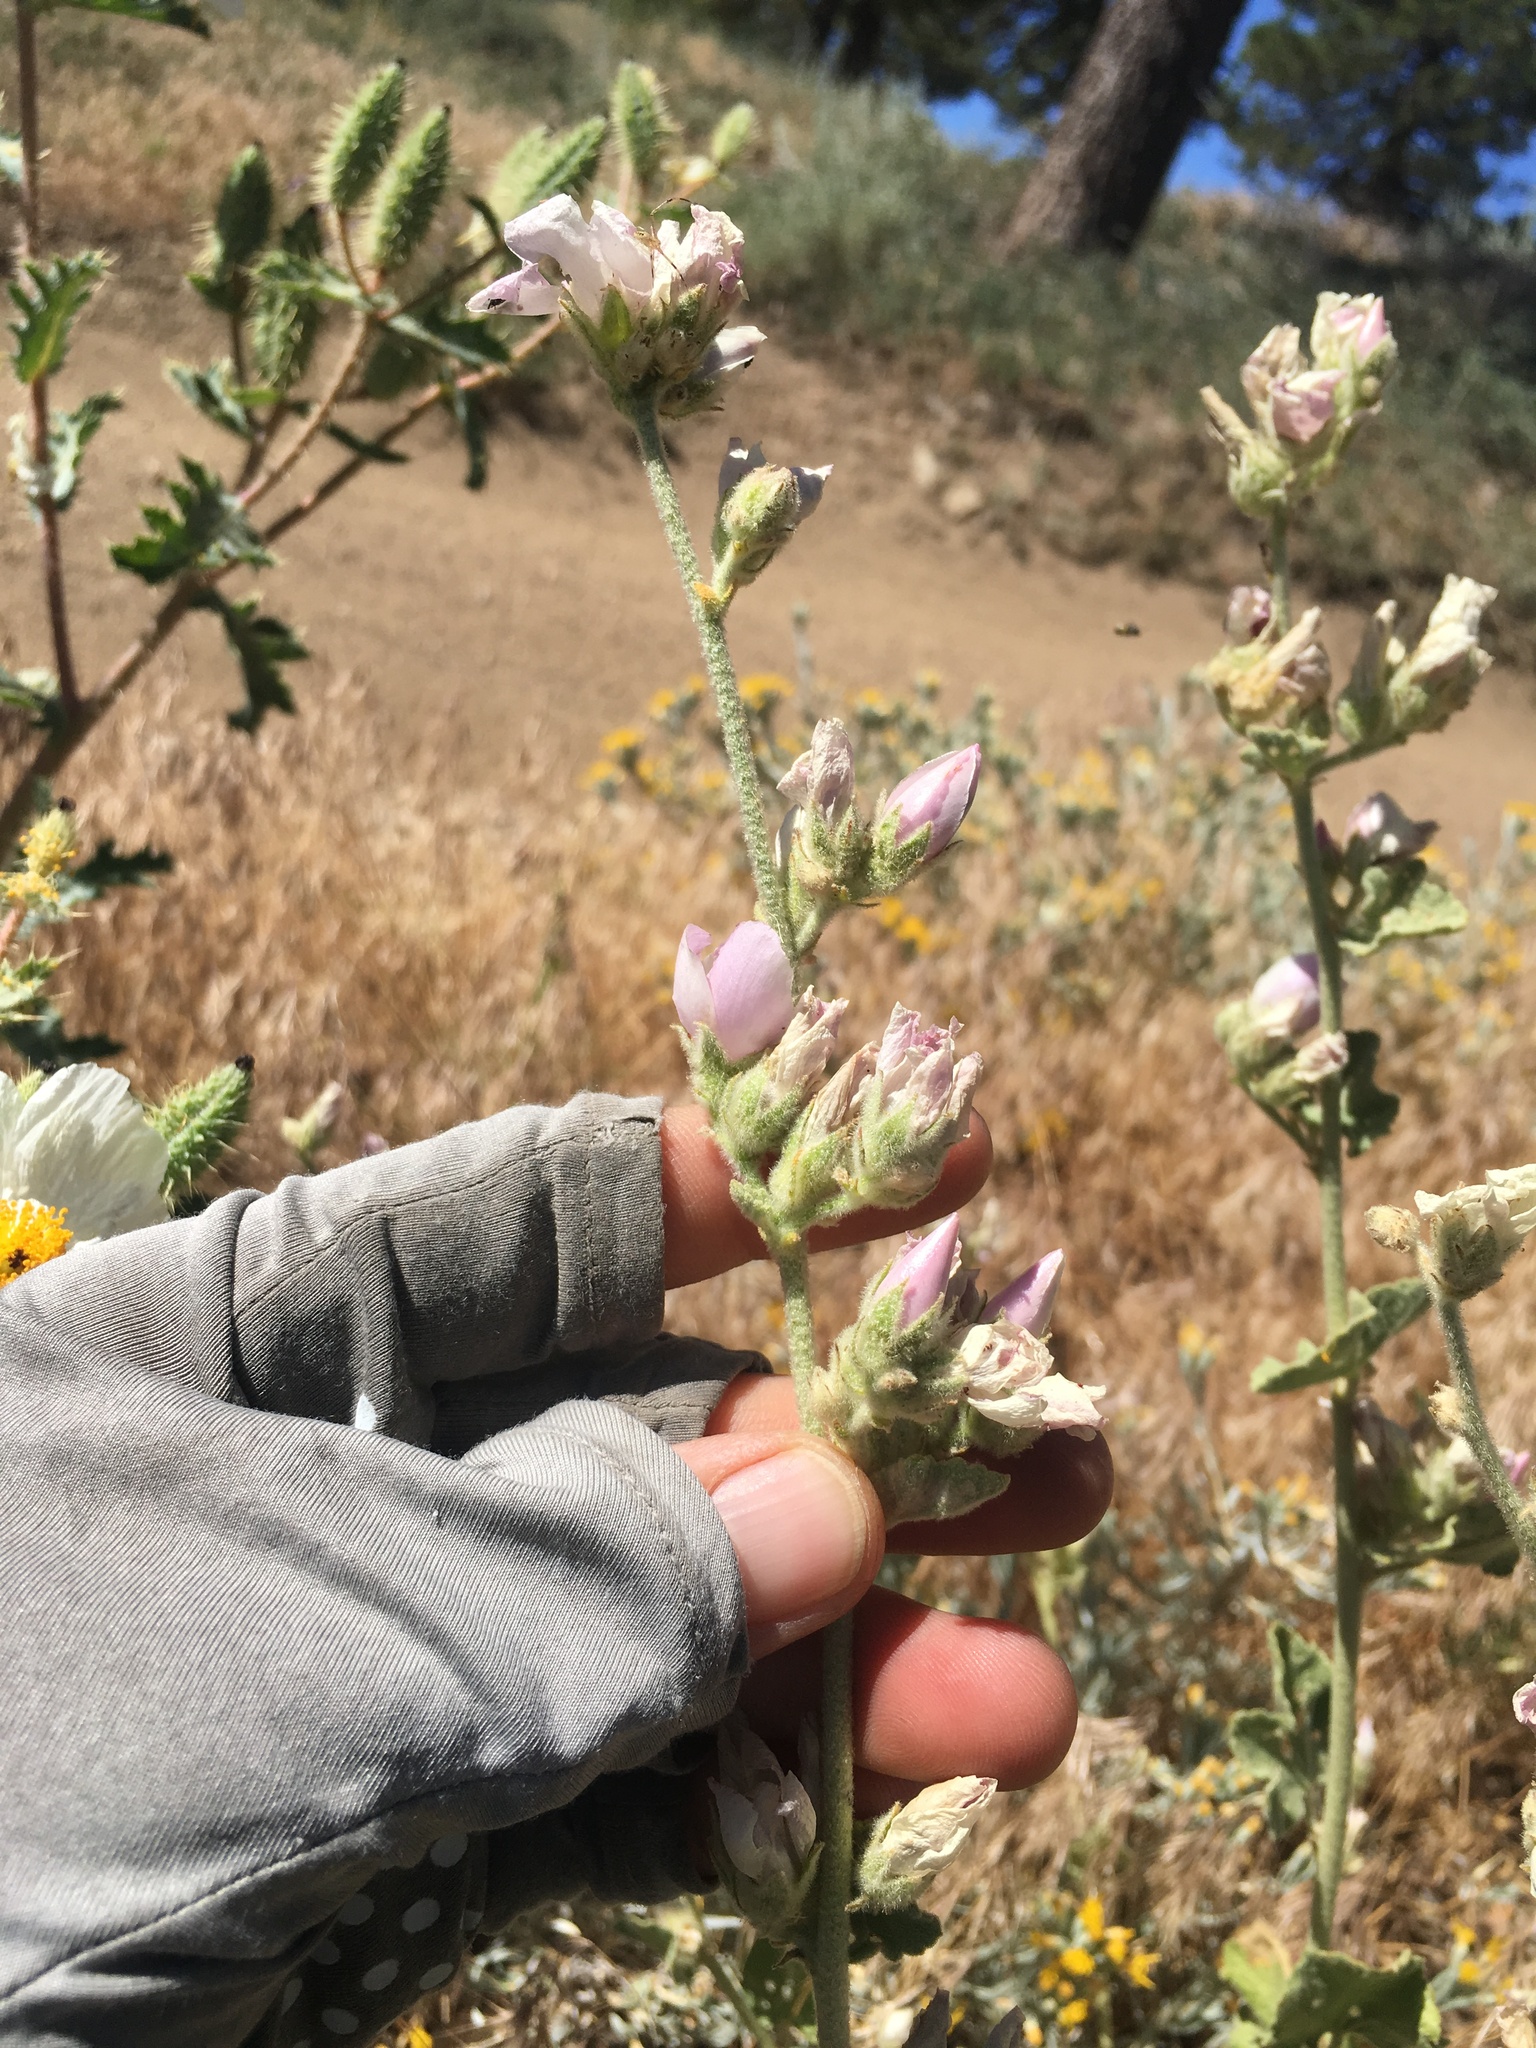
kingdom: Plantae
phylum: Tracheophyta
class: Magnoliopsida
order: Malvales
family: Malvaceae
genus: Malacothamnus
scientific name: Malacothamnus fremontii
